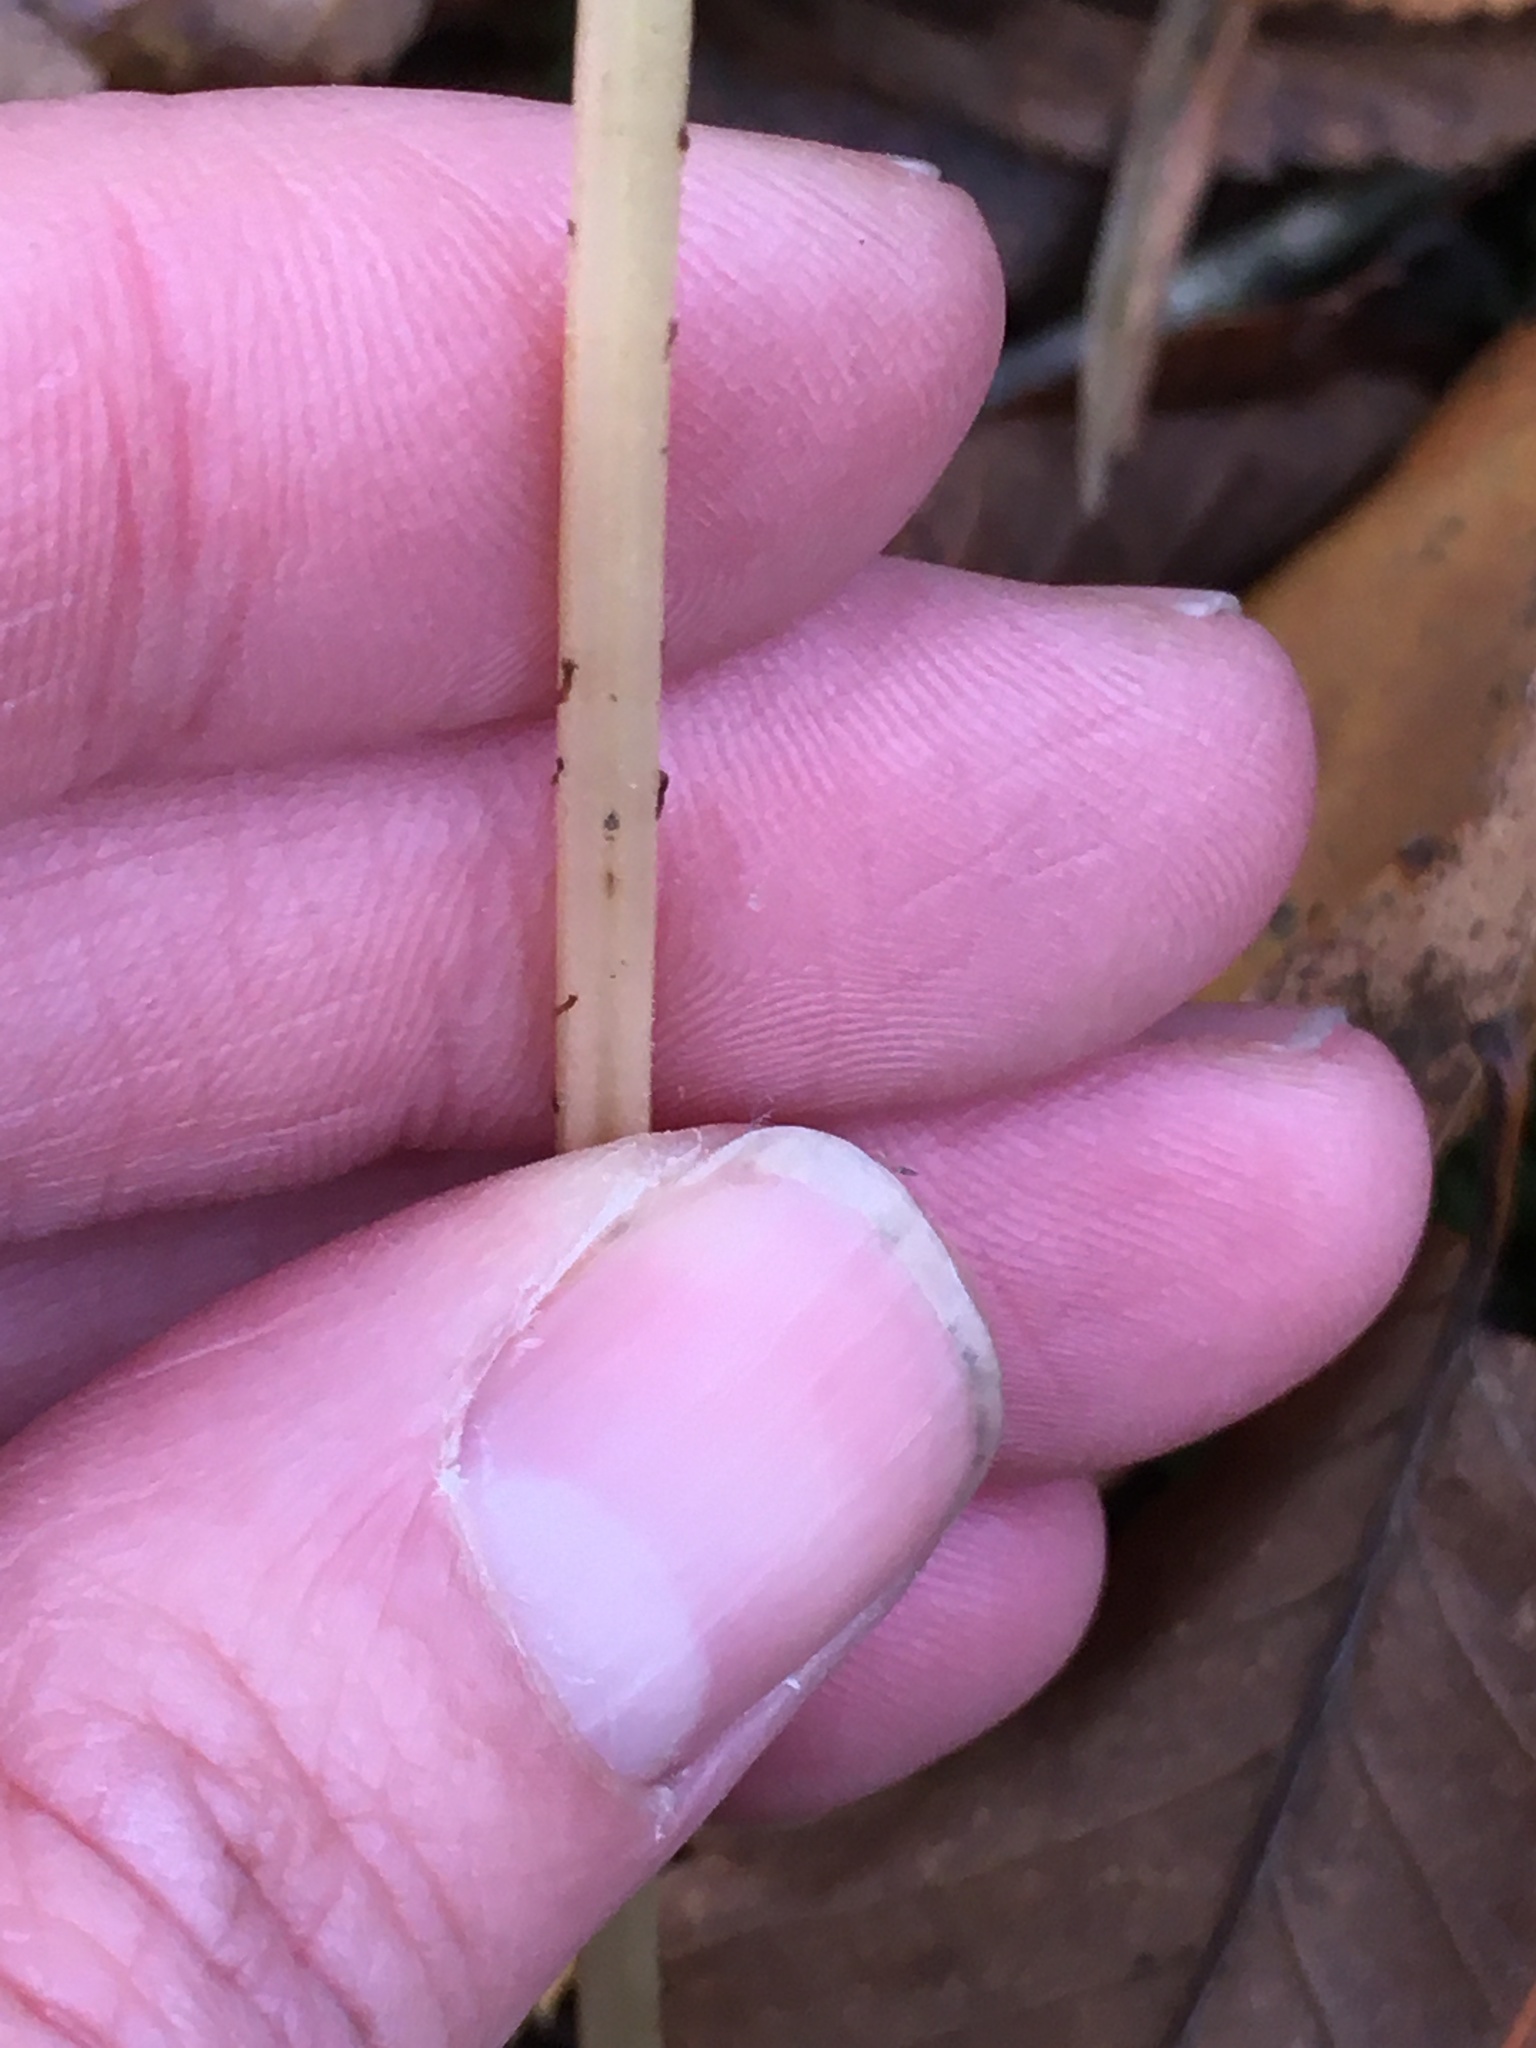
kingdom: Plantae
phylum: Tracheophyta
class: Polypodiopsida
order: Polypodiales
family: Athyriaceae
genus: Athyrium
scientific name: Athyrium angustum
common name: Northern lady fern
